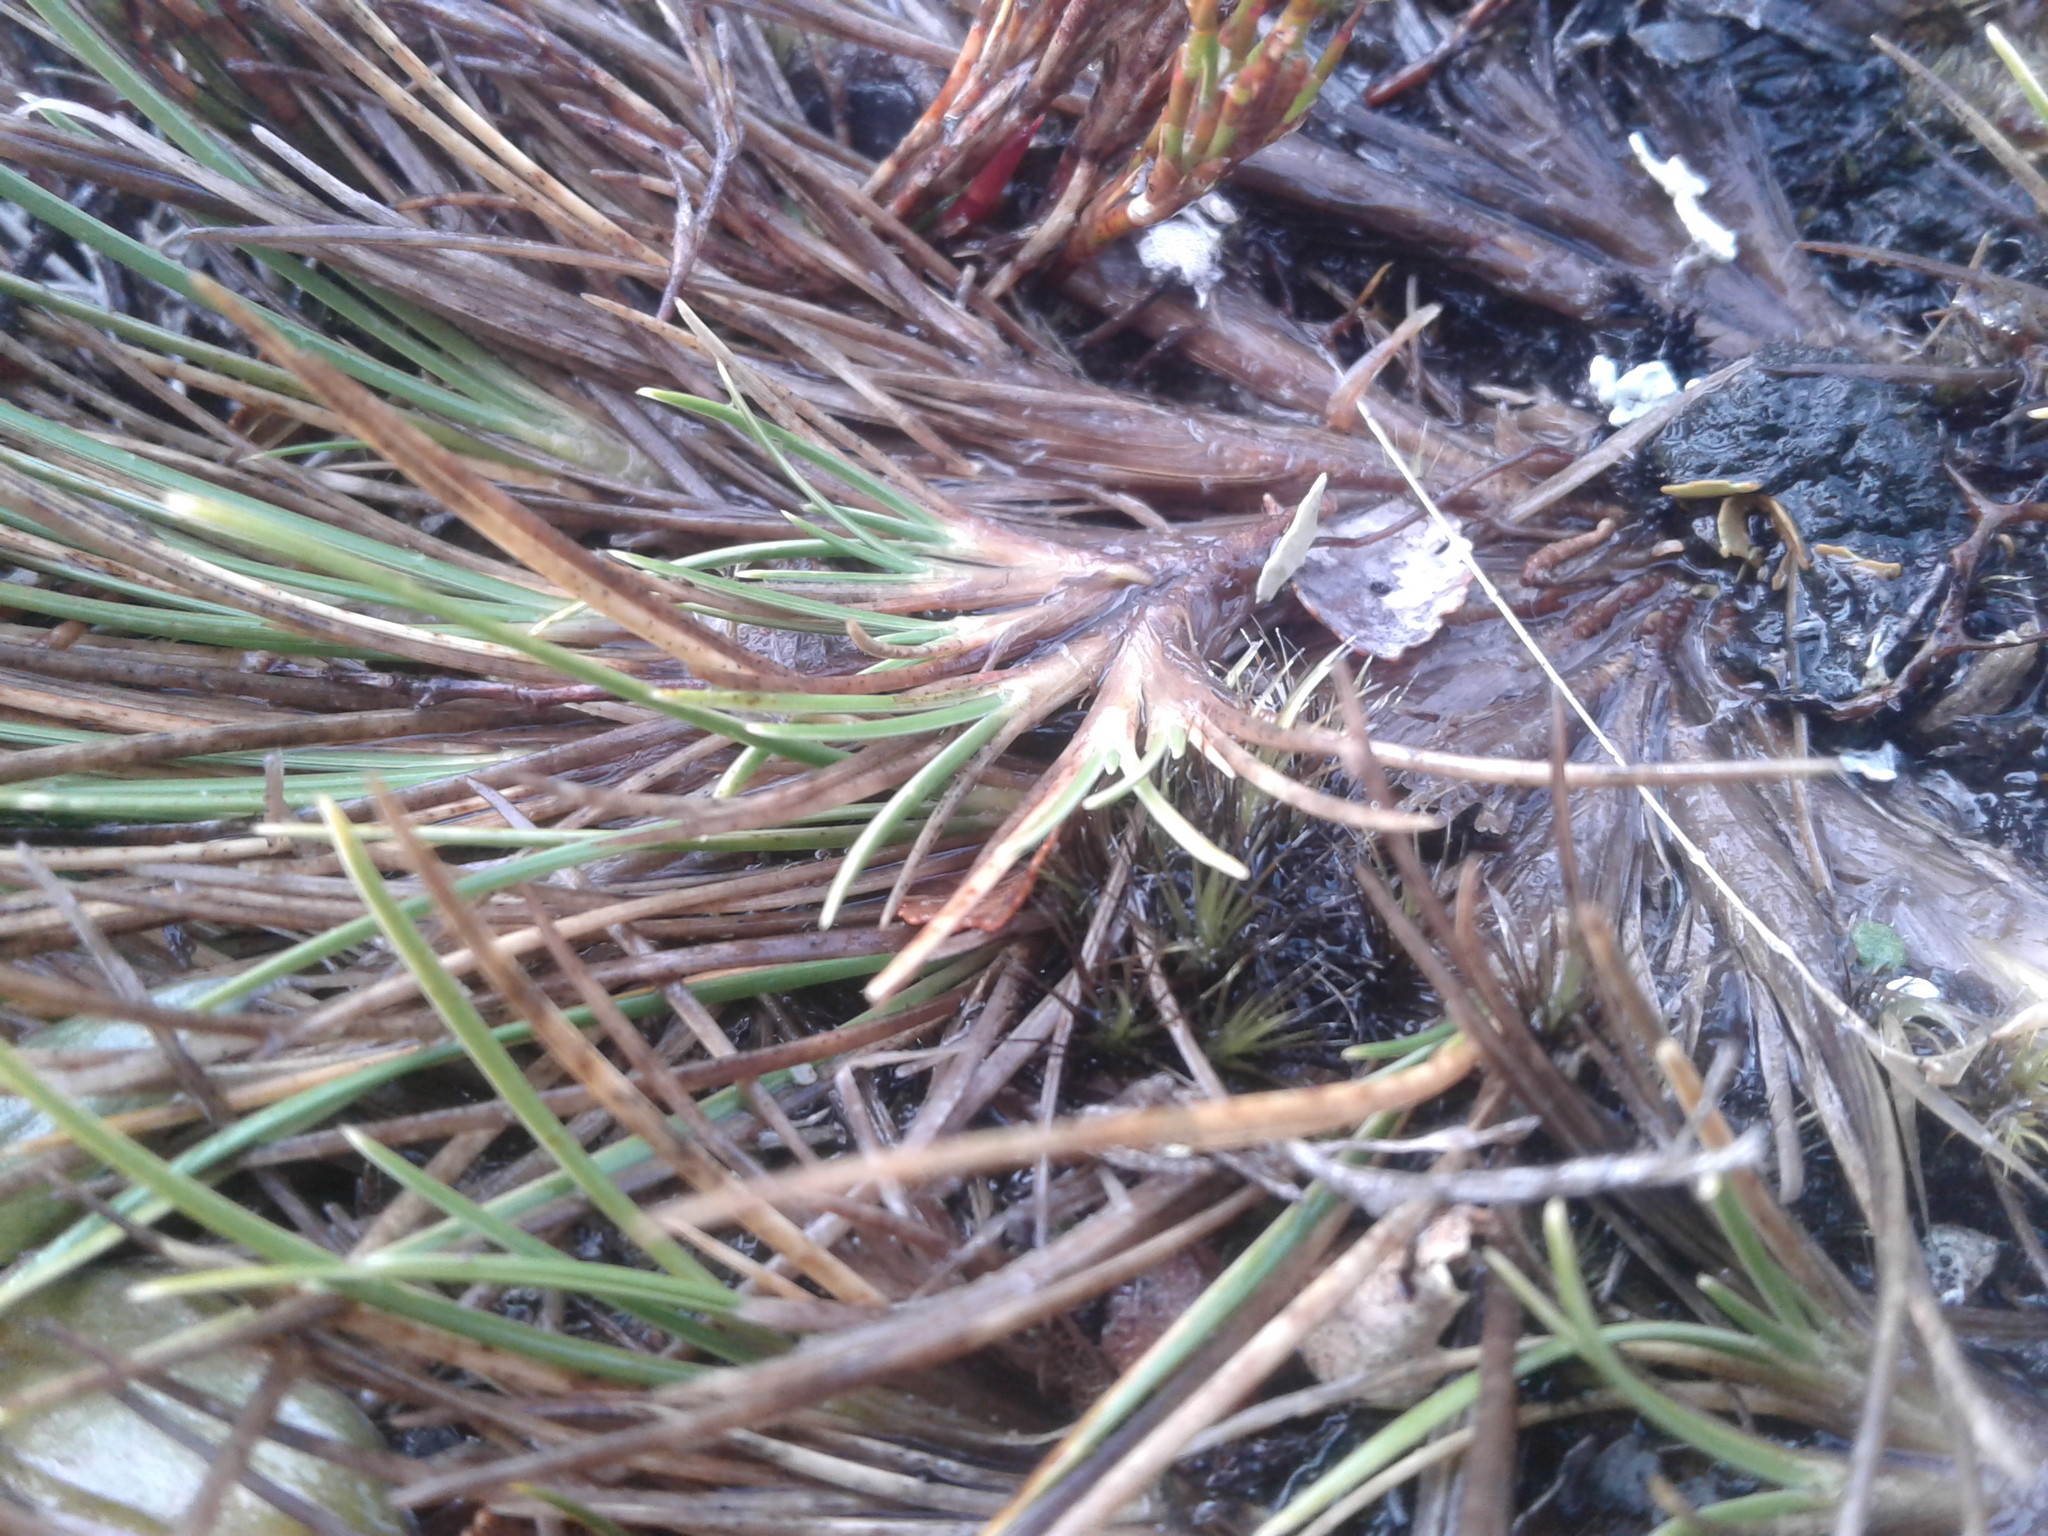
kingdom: Plantae
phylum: Tracheophyta
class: Liliopsida
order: Poales
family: Cyperaceae
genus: Oreobolus
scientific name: Oreobolus strictus
